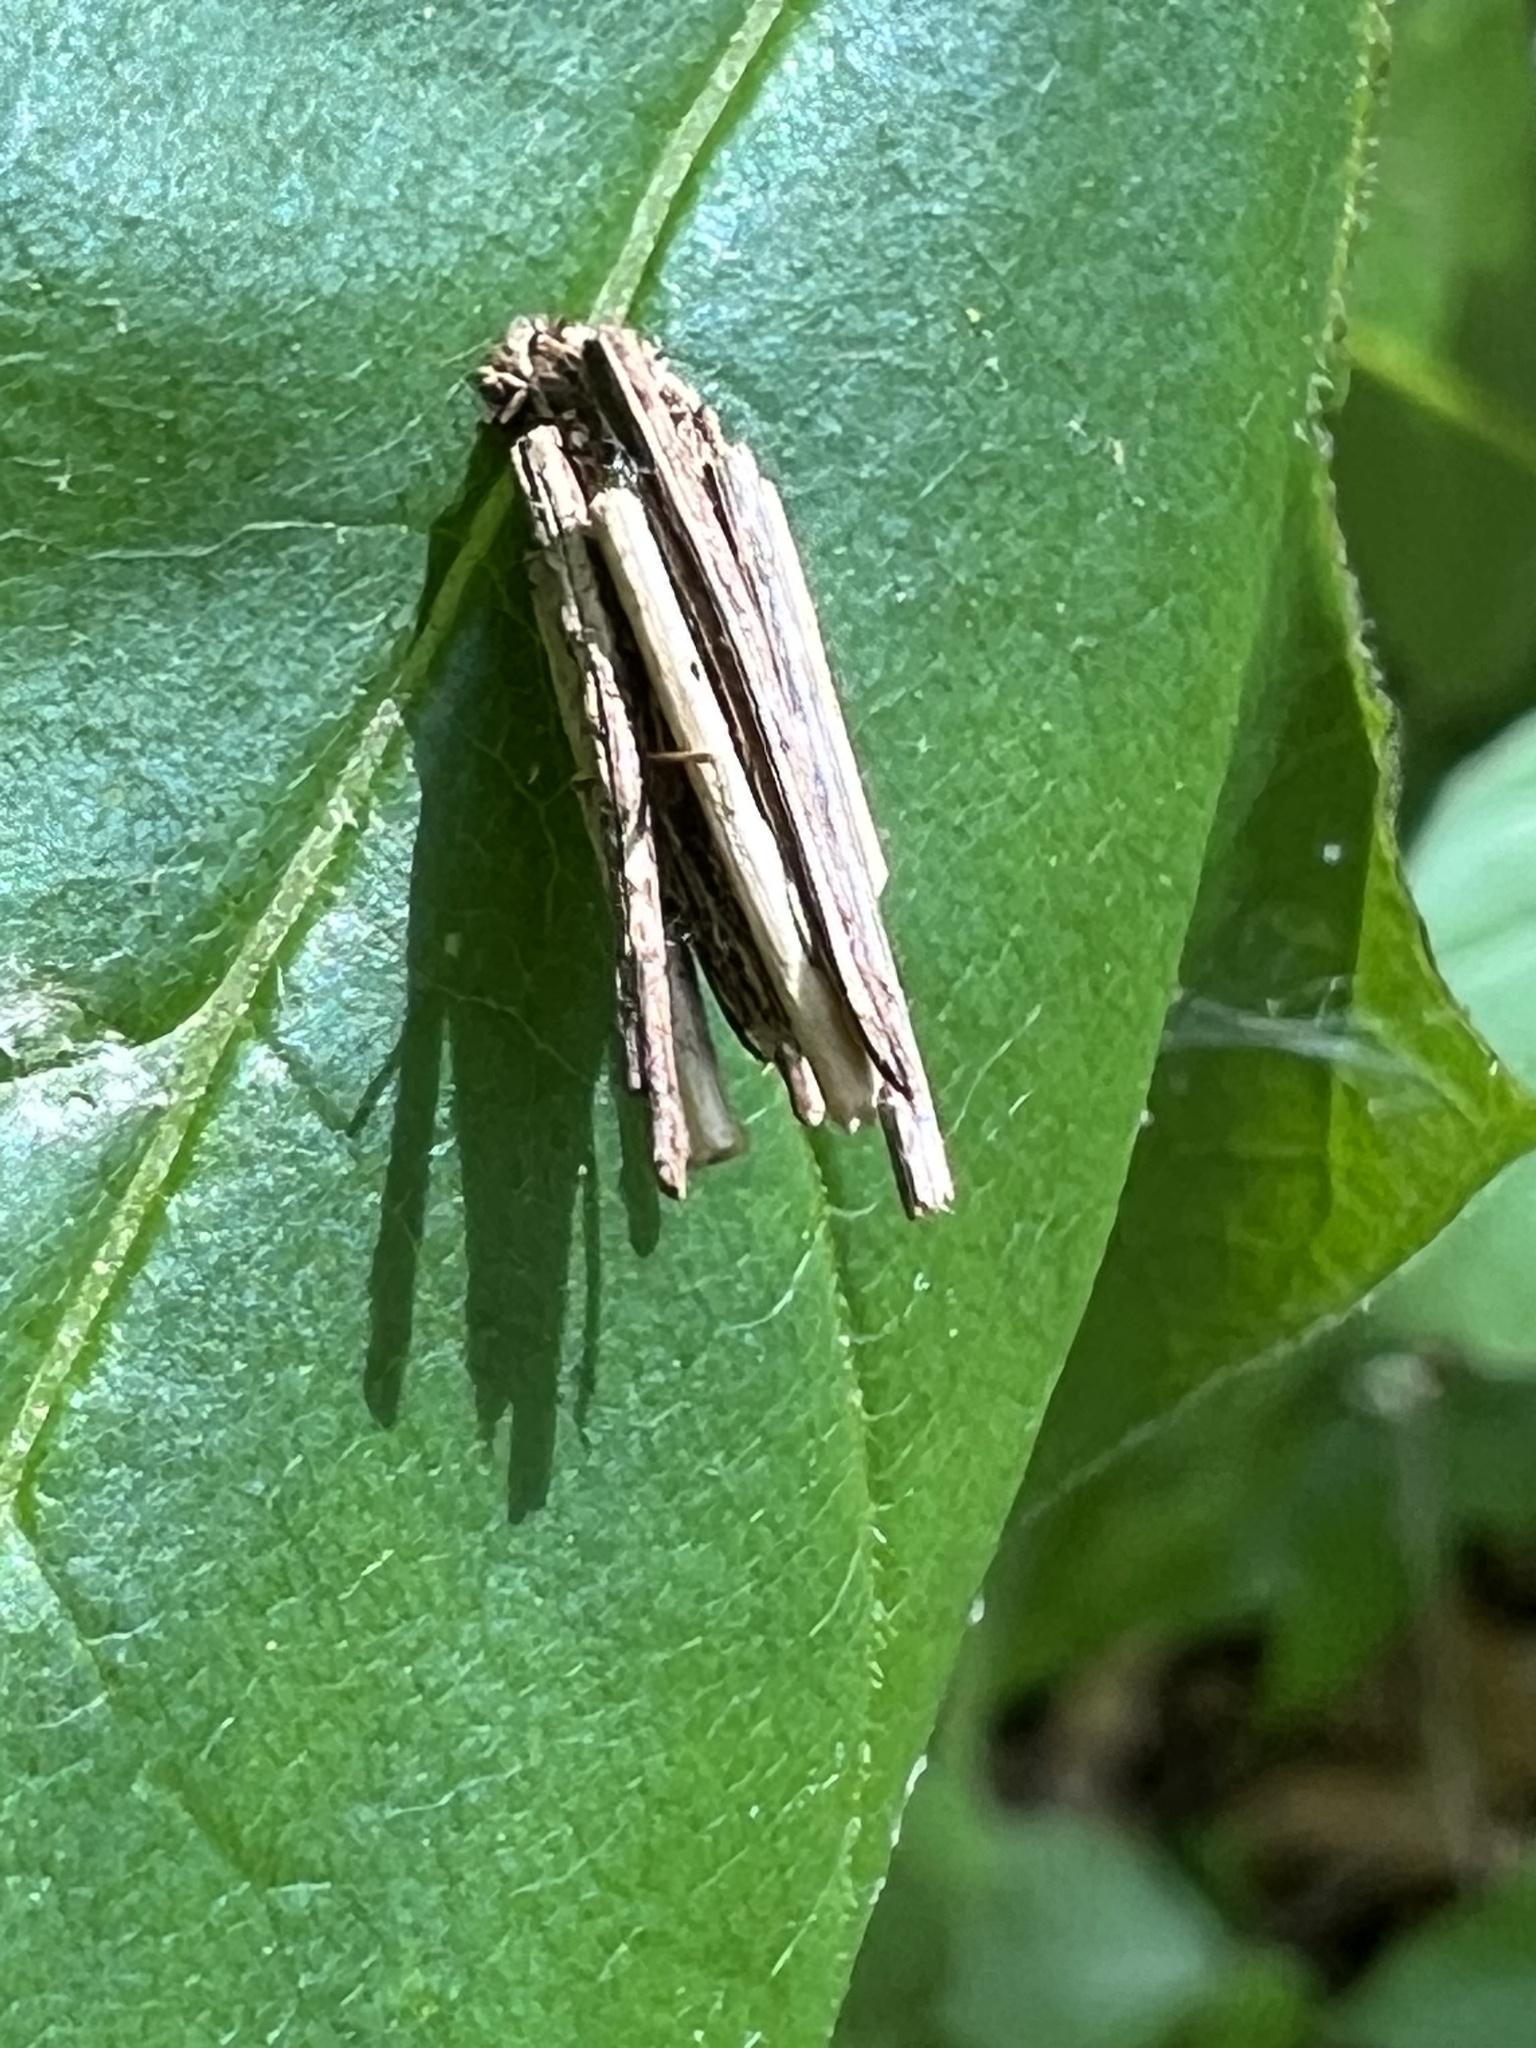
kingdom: Animalia
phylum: Arthropoda
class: Insecta
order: Lepidoptera
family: Psychidae
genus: Psyche
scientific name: Psyche casta
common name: Common sweep
